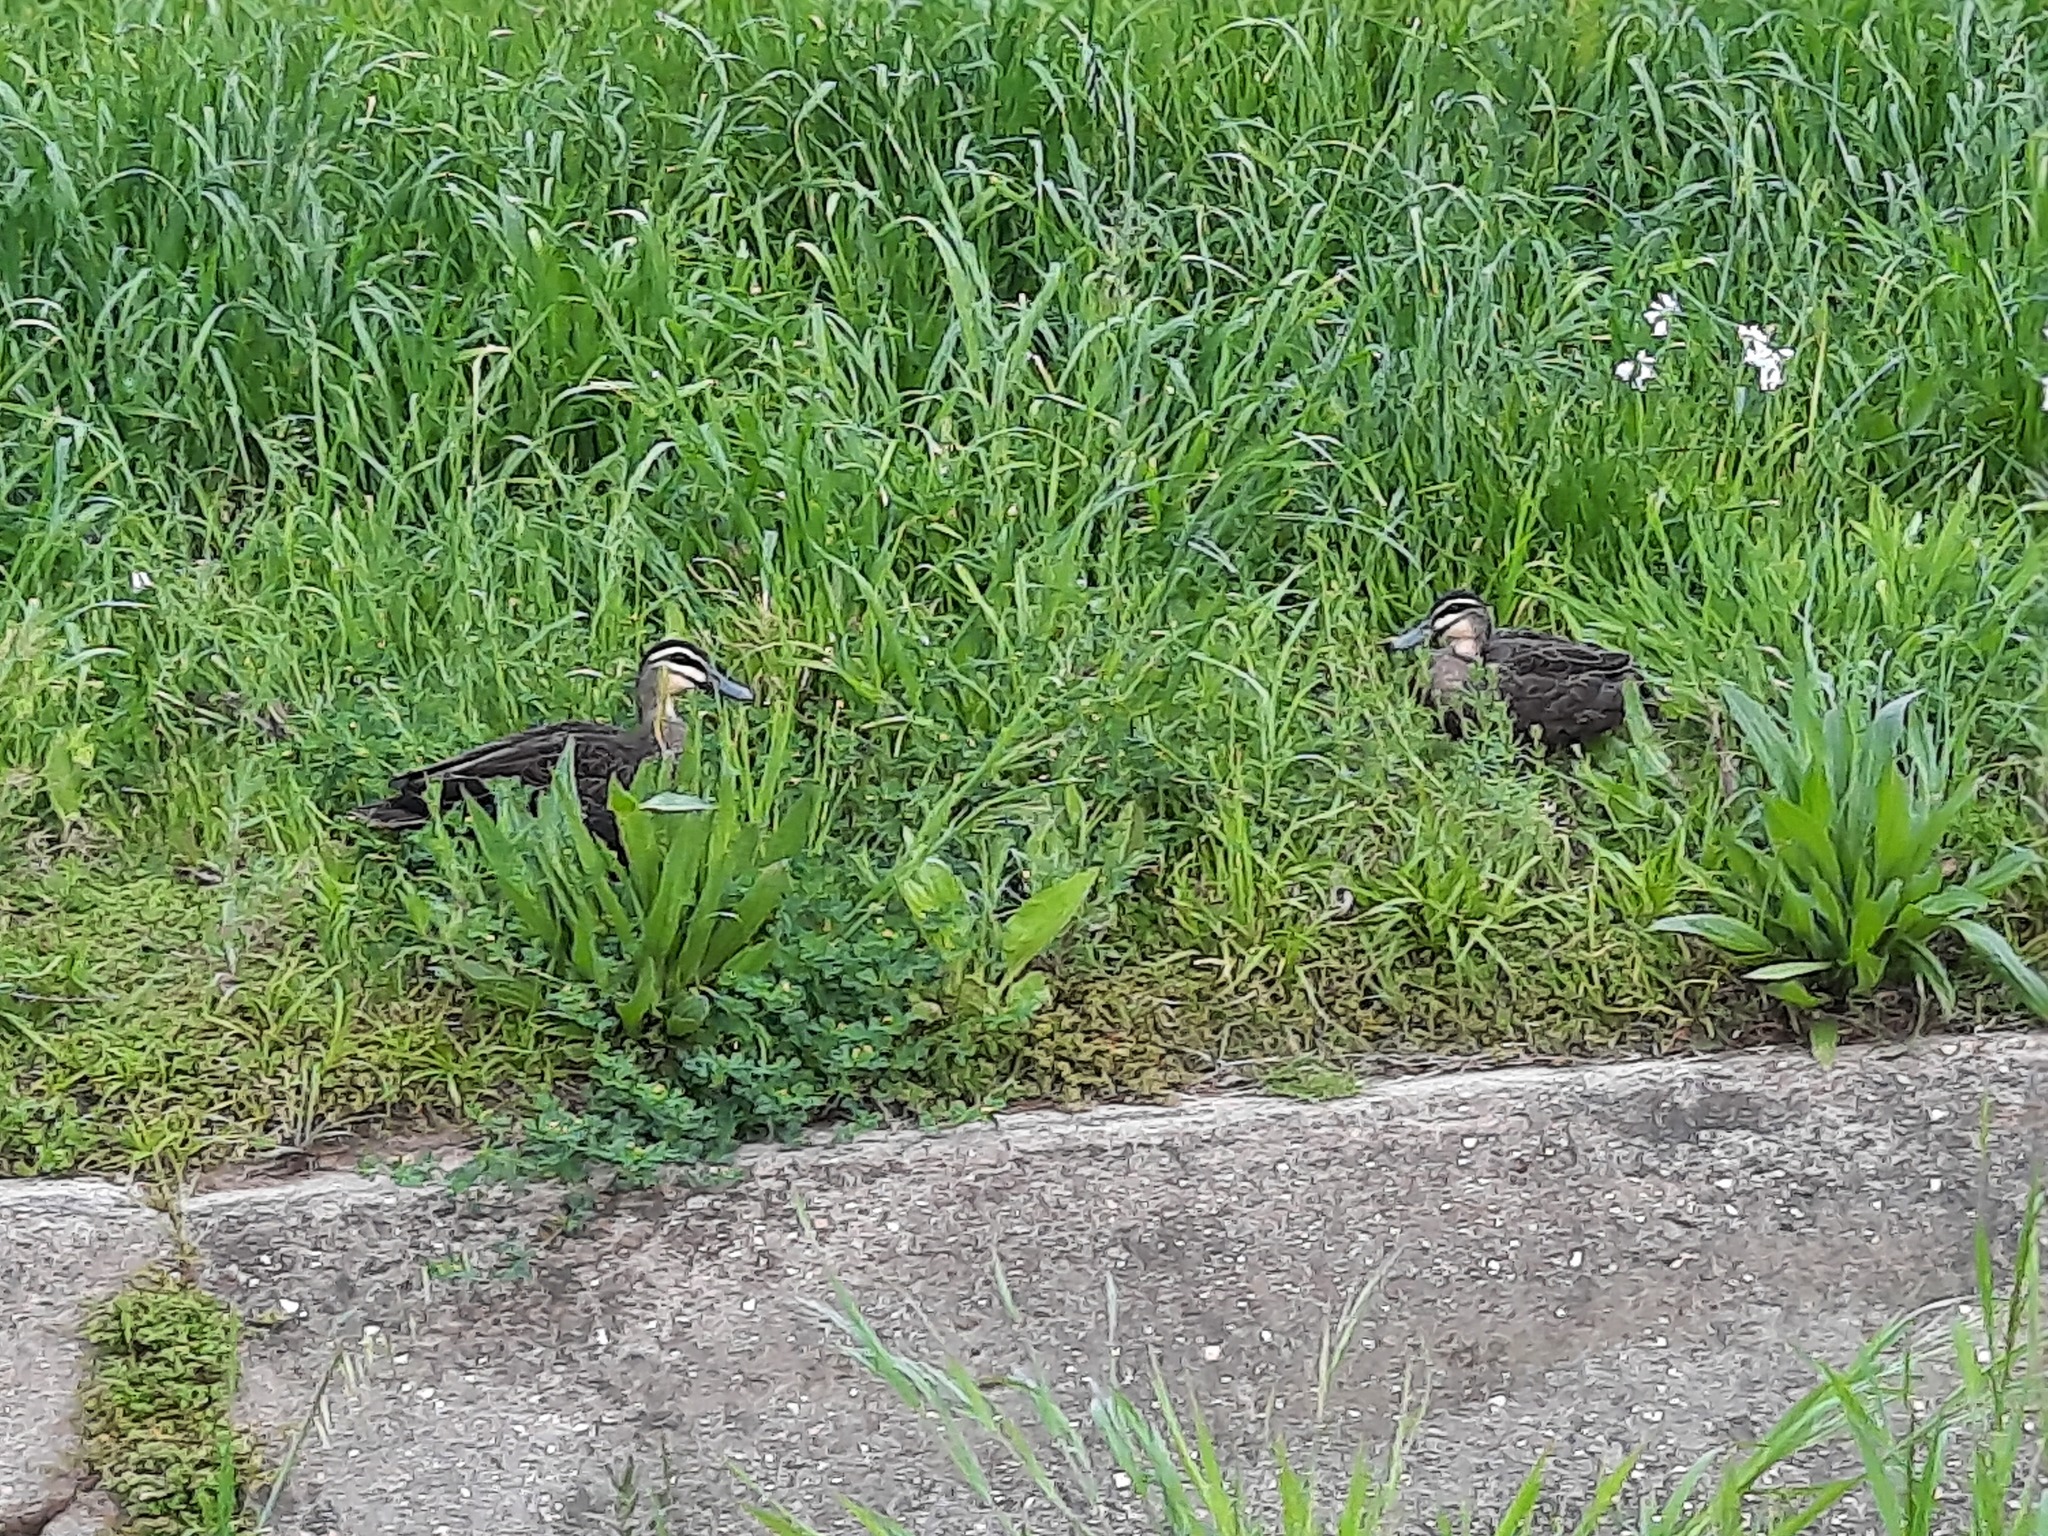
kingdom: Animalia
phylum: Chordata
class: Aves
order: Anseriformes
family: Anatidae
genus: Anas
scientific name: Anas superciliosa
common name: Pacific black duck
